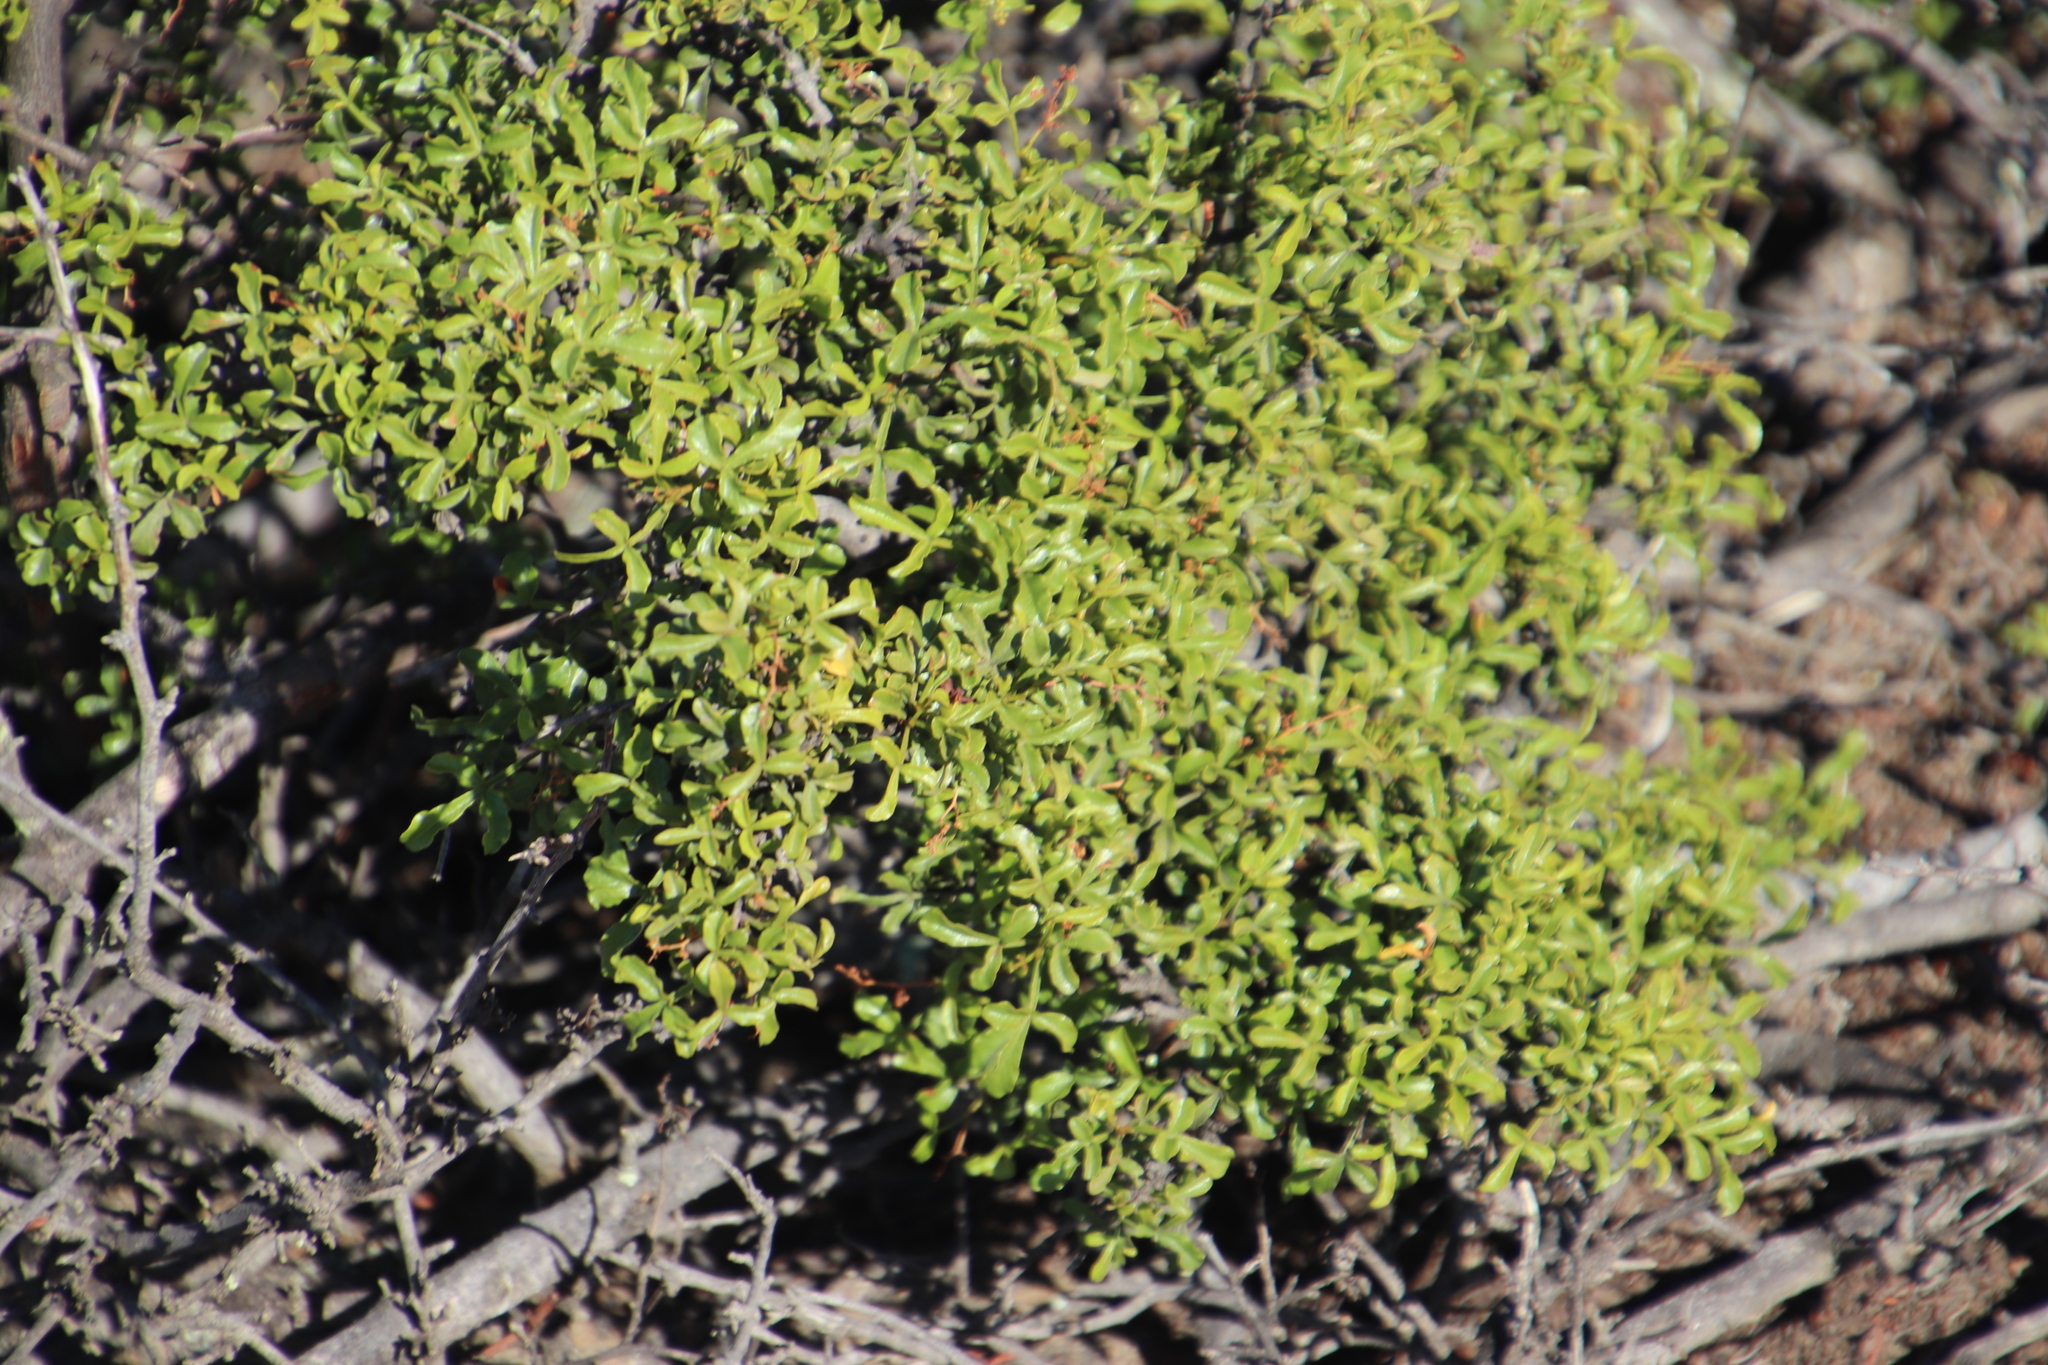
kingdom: Plantae
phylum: Tracheophyta
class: Magnoliopsida
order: Sapindales
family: Anacardiaceae
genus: Searsia
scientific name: Searsia undulata
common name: Namaqua kunibush
